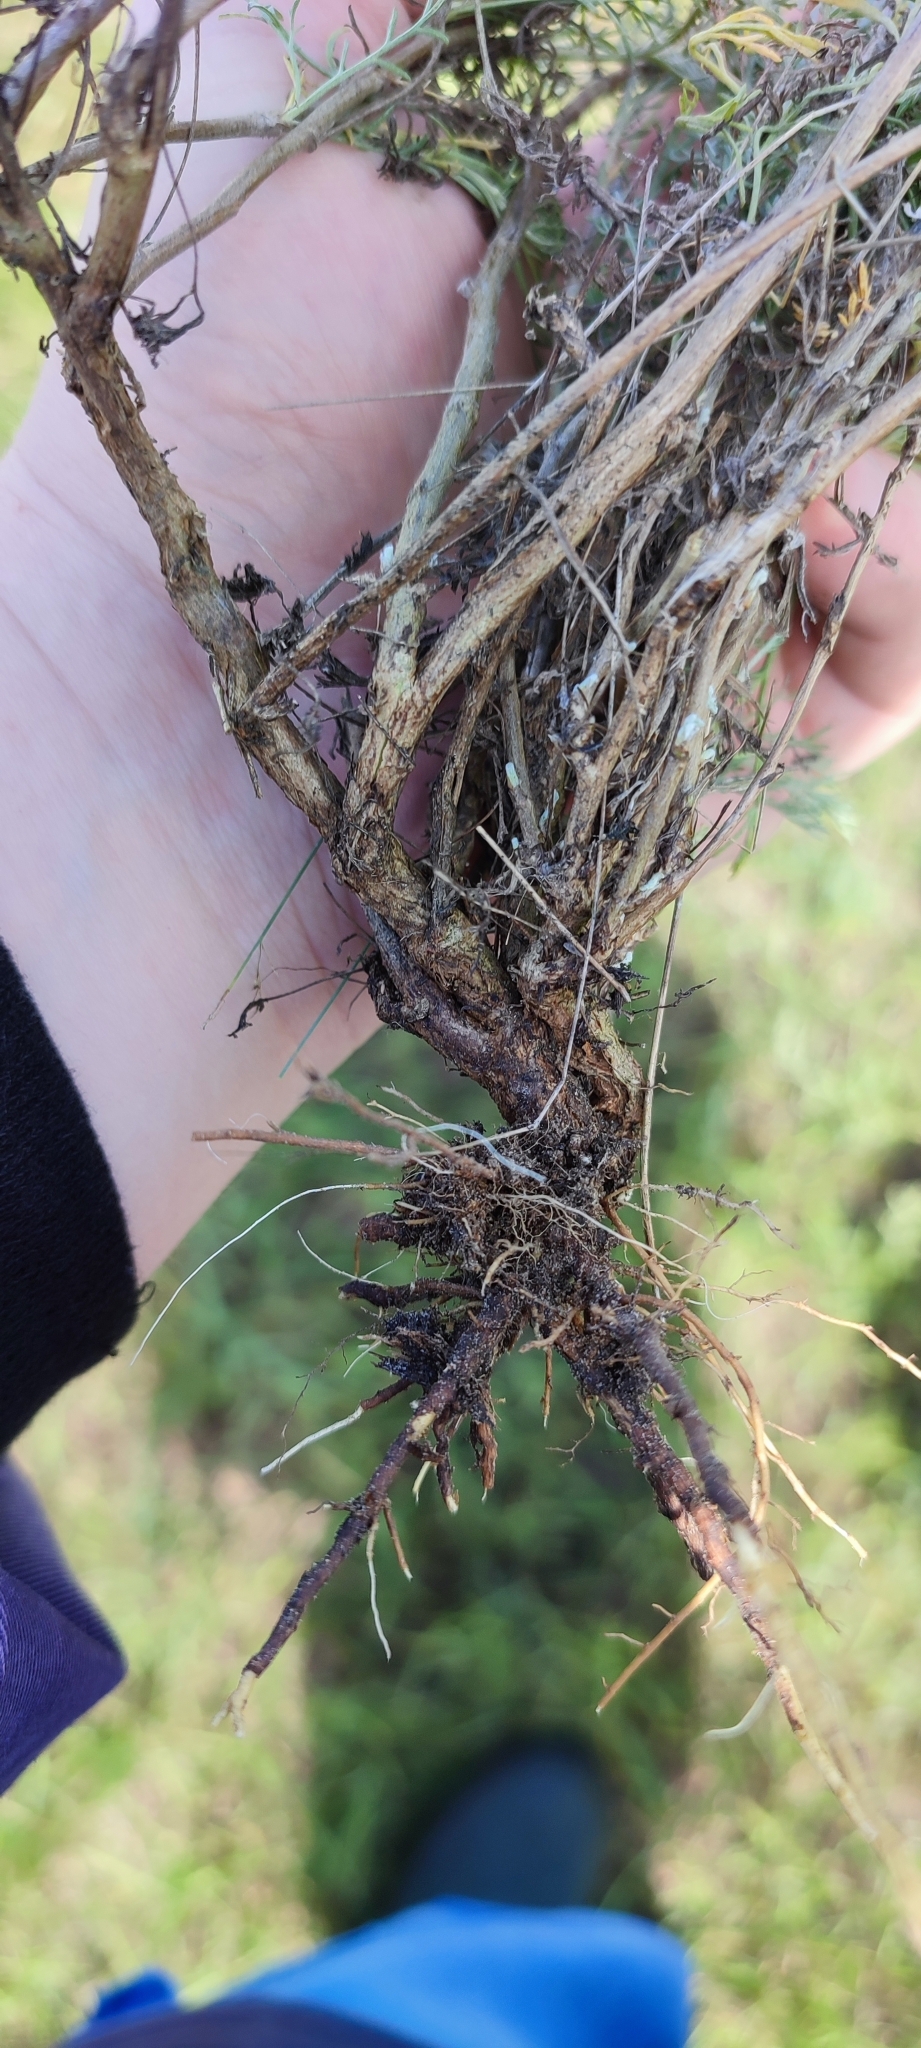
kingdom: Plantae
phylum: Tracheophyta
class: Magnoliopsida
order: Asterales
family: Asteraceae
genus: Artemisia
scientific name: Artemisia nitrosa
